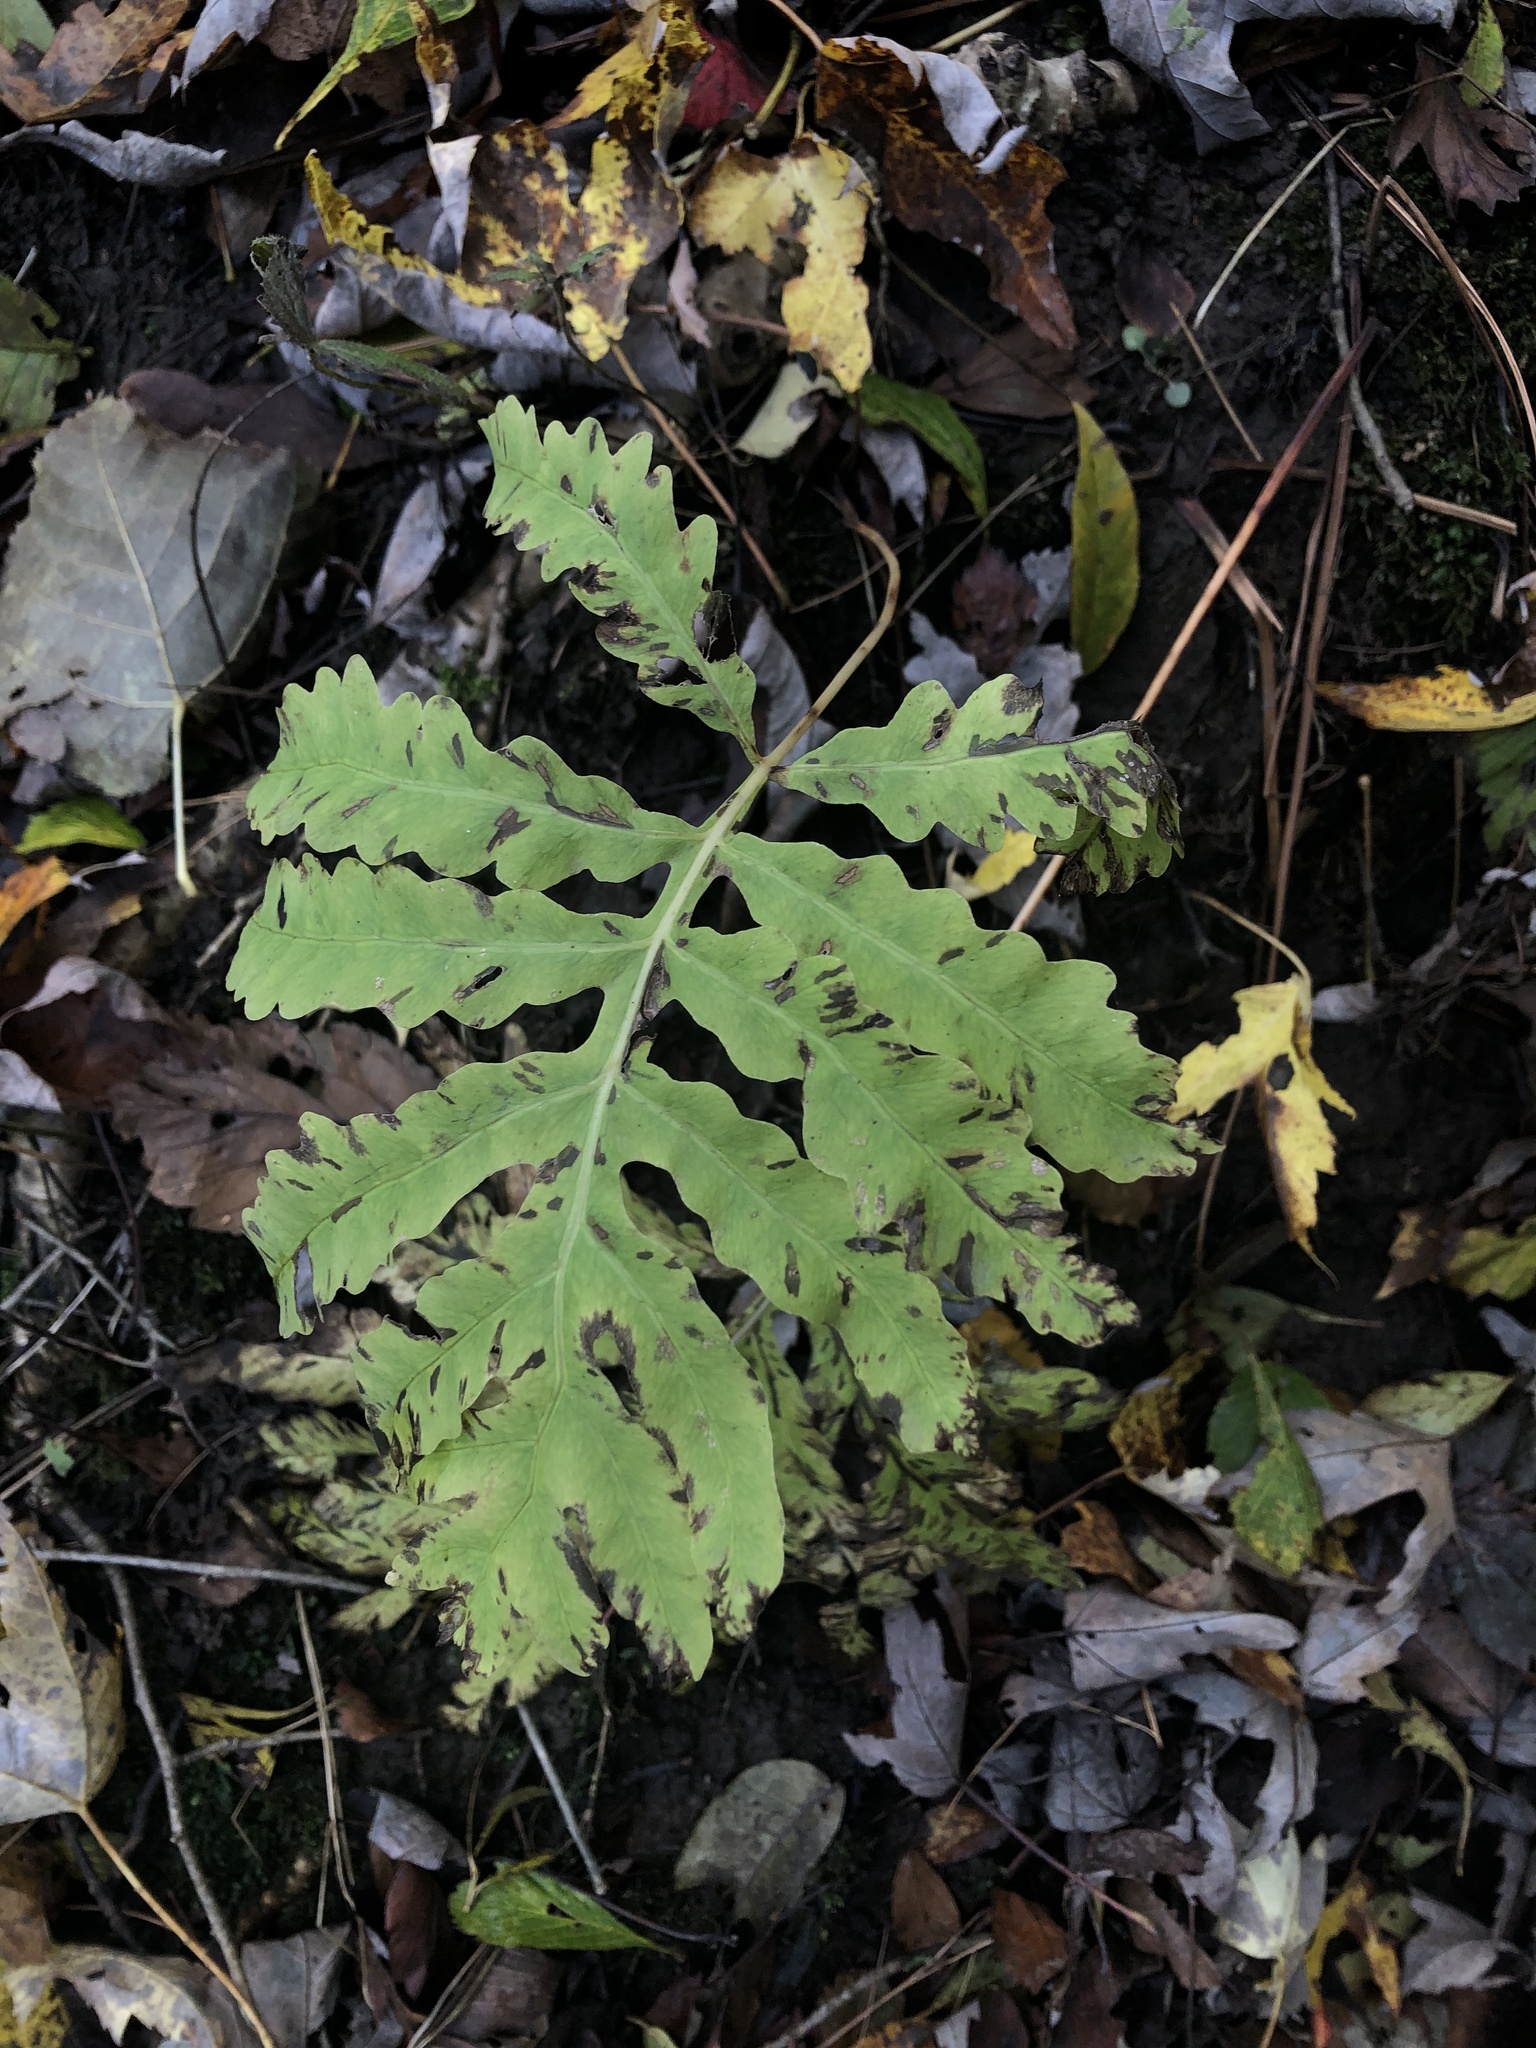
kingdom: Plantae
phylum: Tracheophyta
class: Polypodiopsida
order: Polypodiales
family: Onocleaceae
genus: Onoclea
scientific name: Onoclea sensibilis
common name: Sensitive fern
